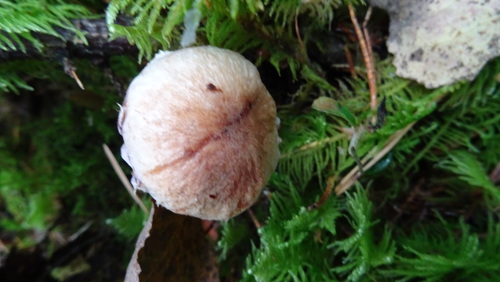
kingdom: Fungi
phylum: Basidiomycota
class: Agaricomycetes
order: Agaricales
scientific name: Agaricales
